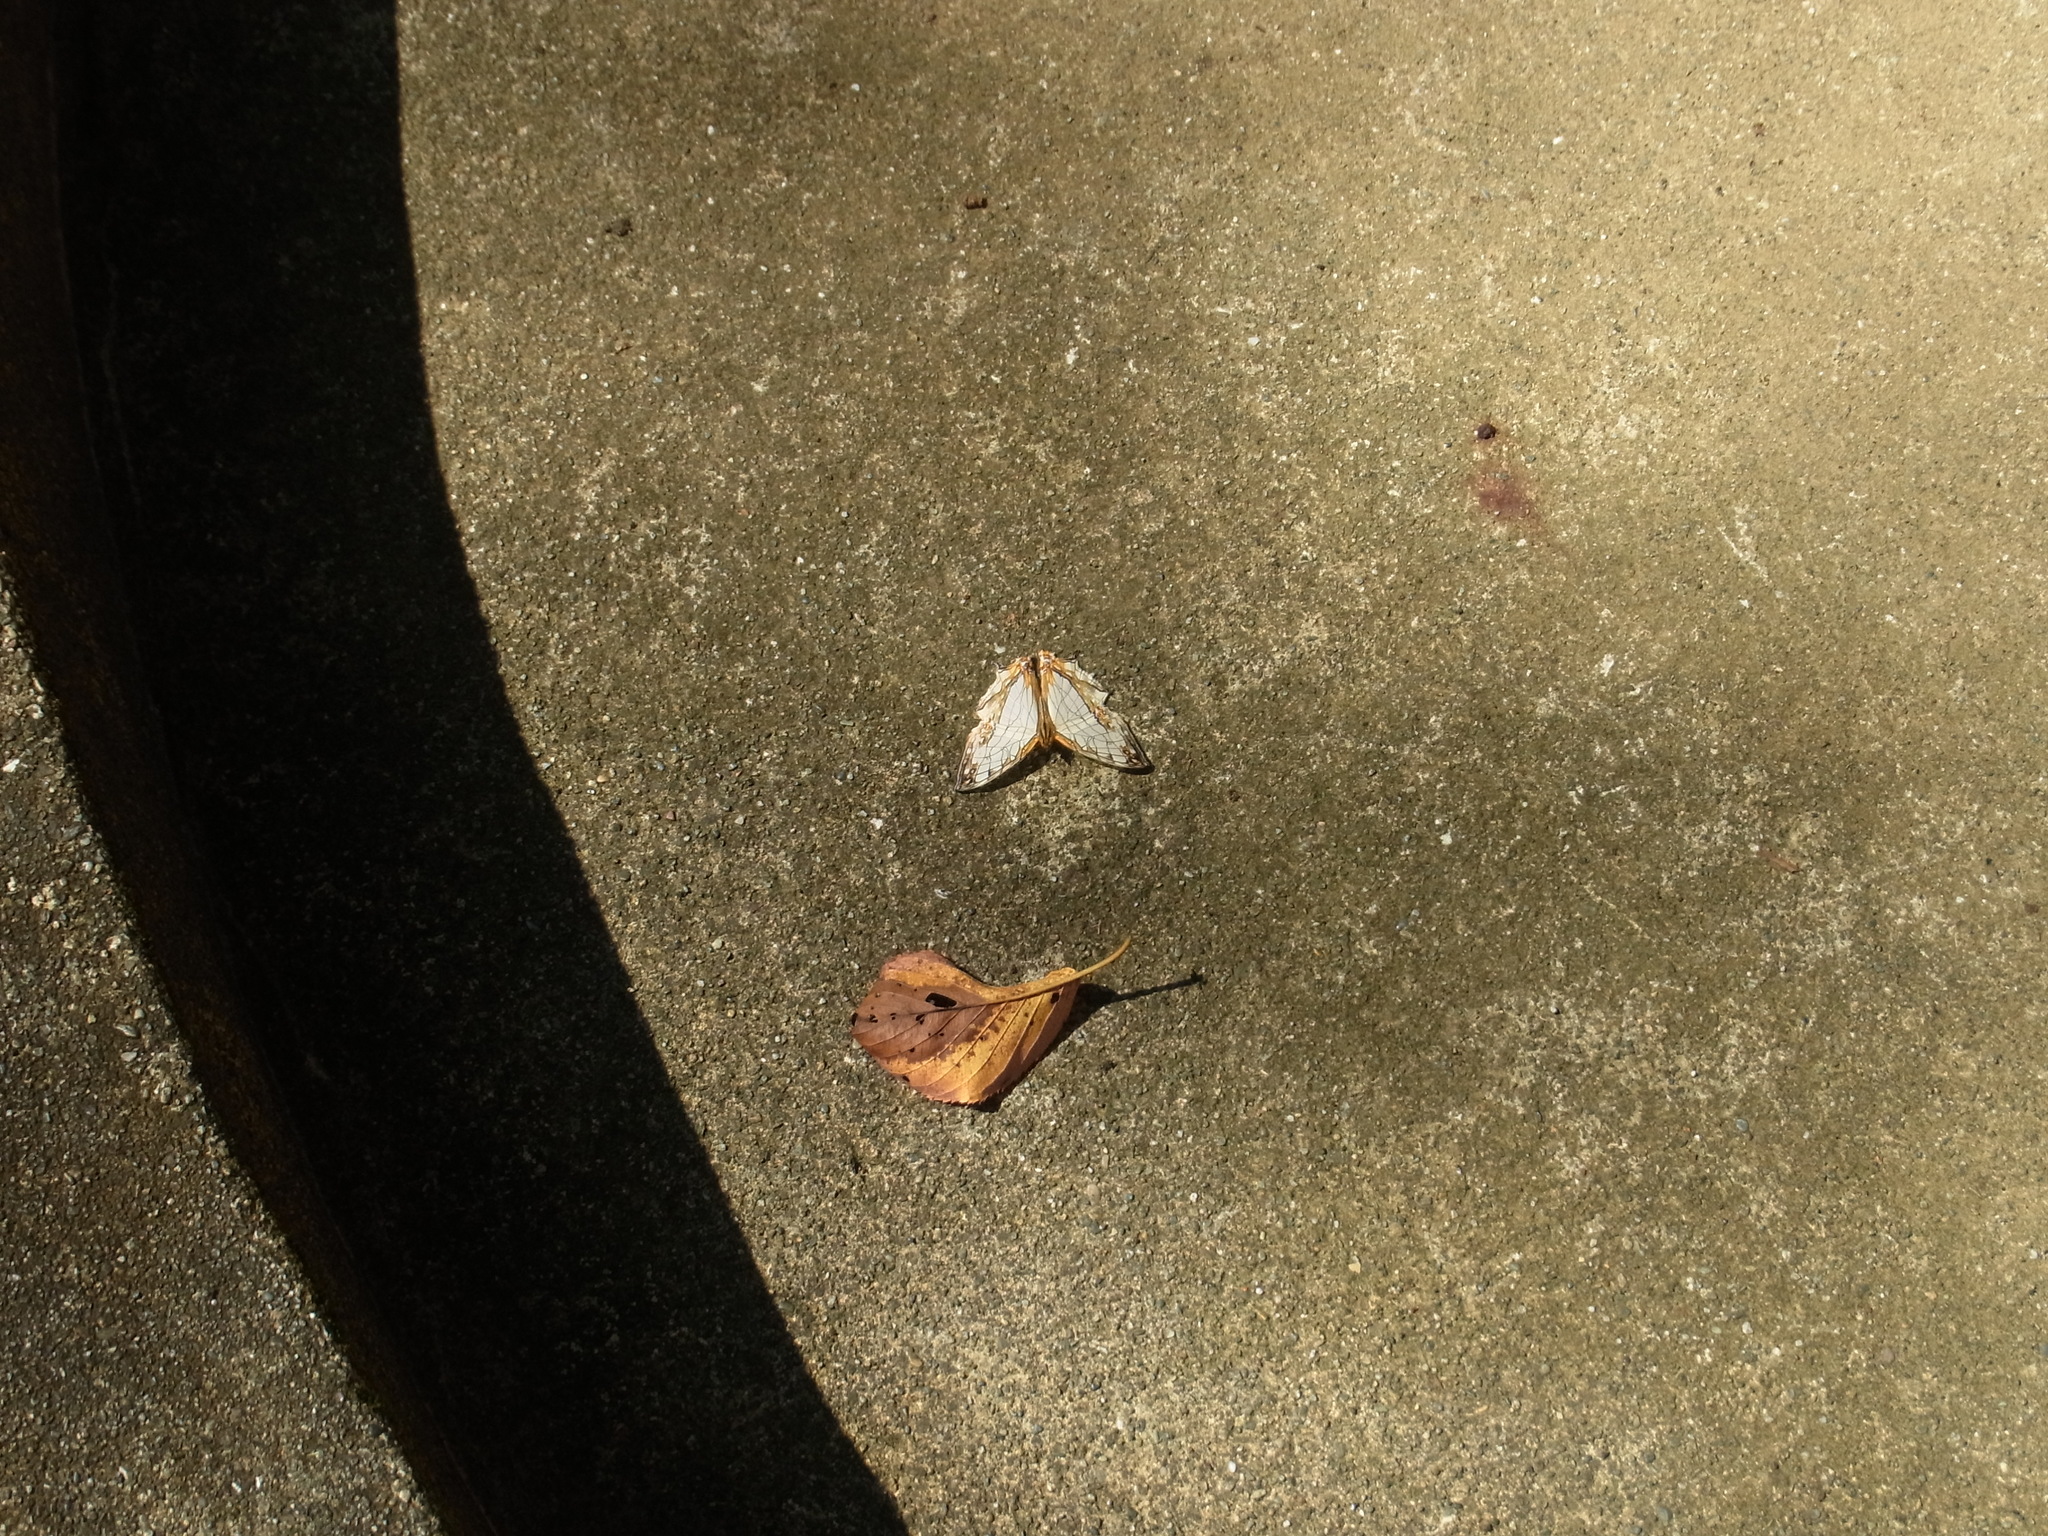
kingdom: Animalia
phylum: Arthropoda
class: Insecta
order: Lepidoptera
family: Nymphalidae
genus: Cyrestis
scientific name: Cyrestis thyodamas
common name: Common mapwing
